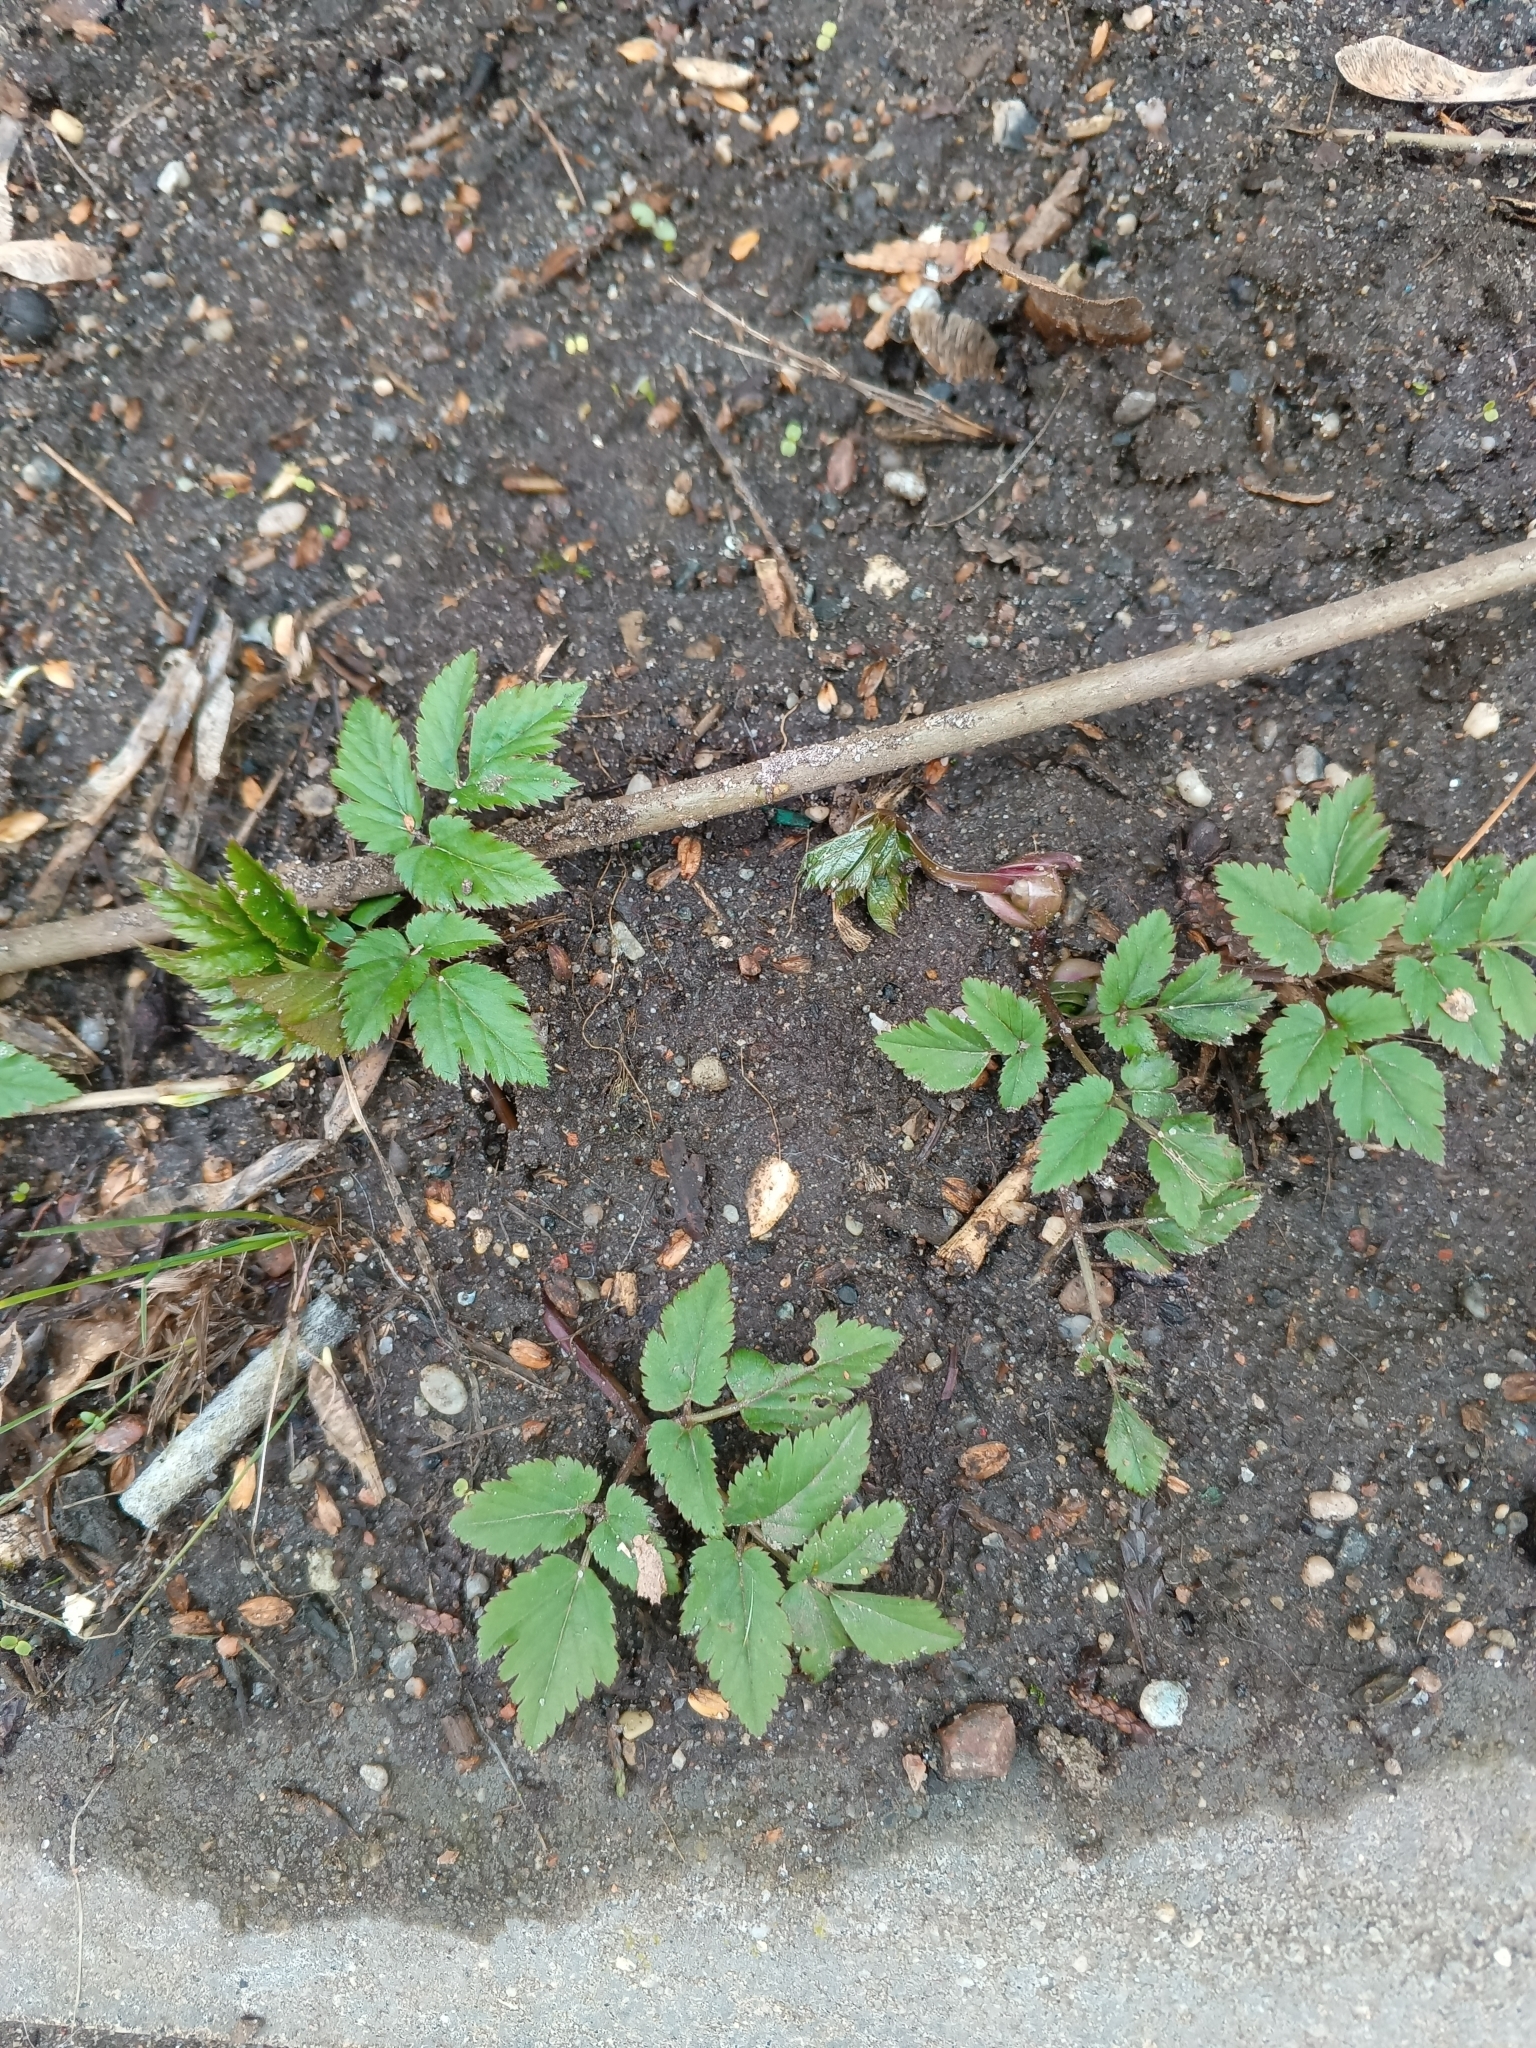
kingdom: Plantae
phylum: Tracheophyta
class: Magnoliopsida
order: Apiales
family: Apiaceae
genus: Aegopodium
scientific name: Aegopodium podagraria
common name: Ground-elder
